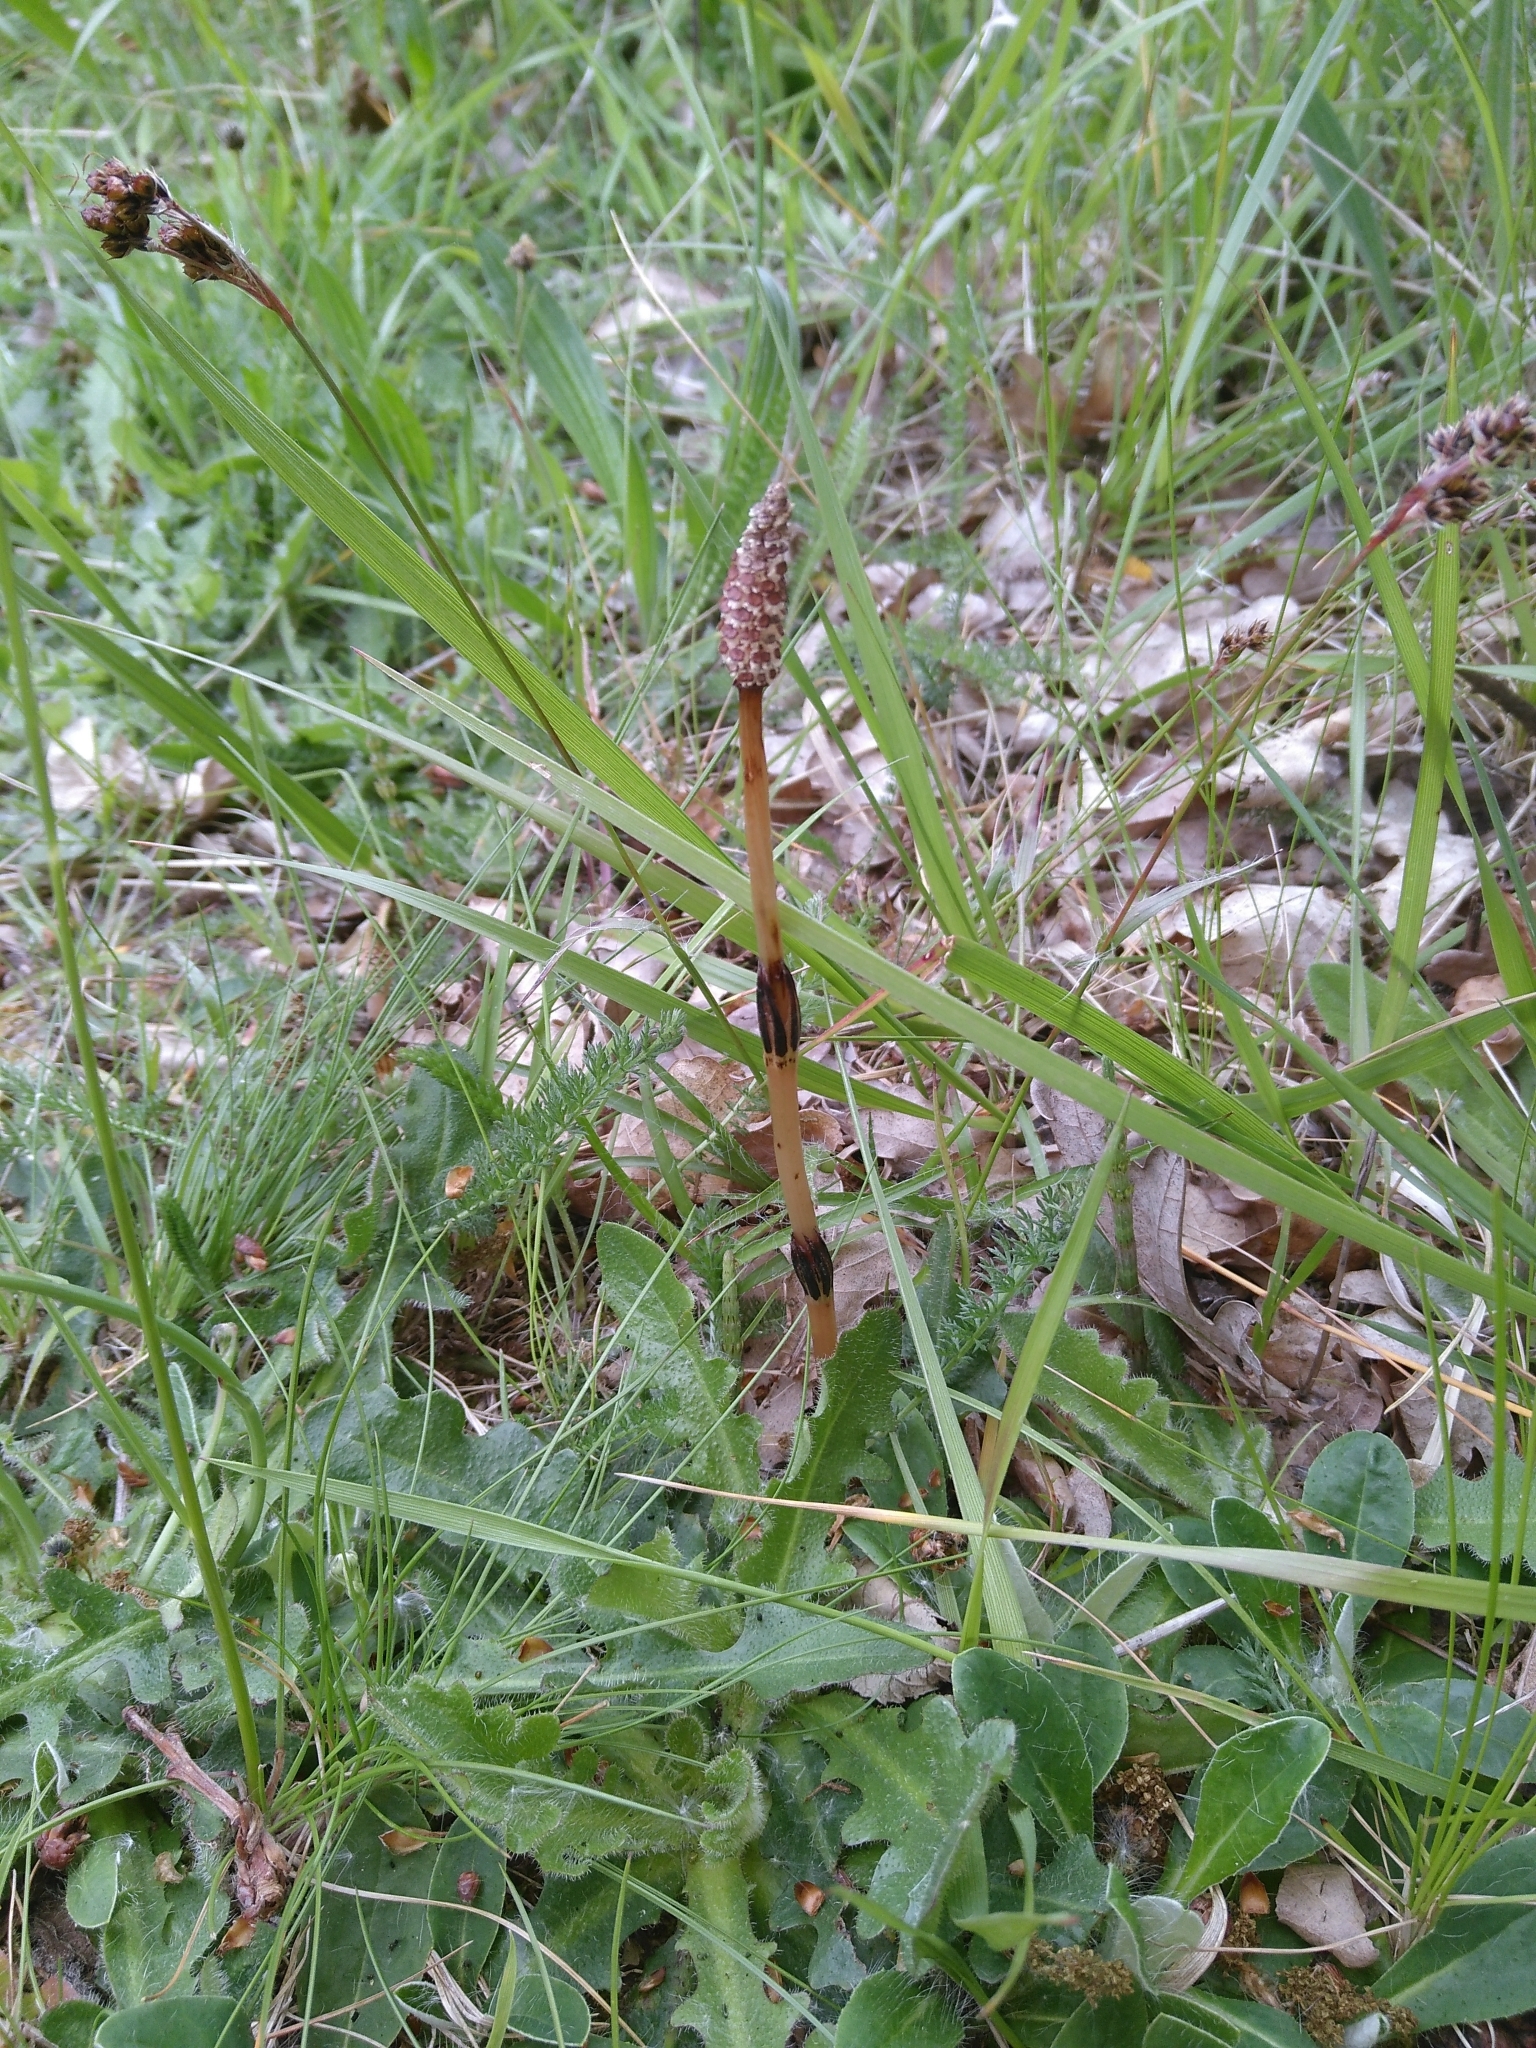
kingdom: Plantae
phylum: Tracheophyta
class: Polypodiopsida
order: Equisetales
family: Equisetaceae
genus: Equisetum
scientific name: Equisetum arvense
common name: Field horsetail
